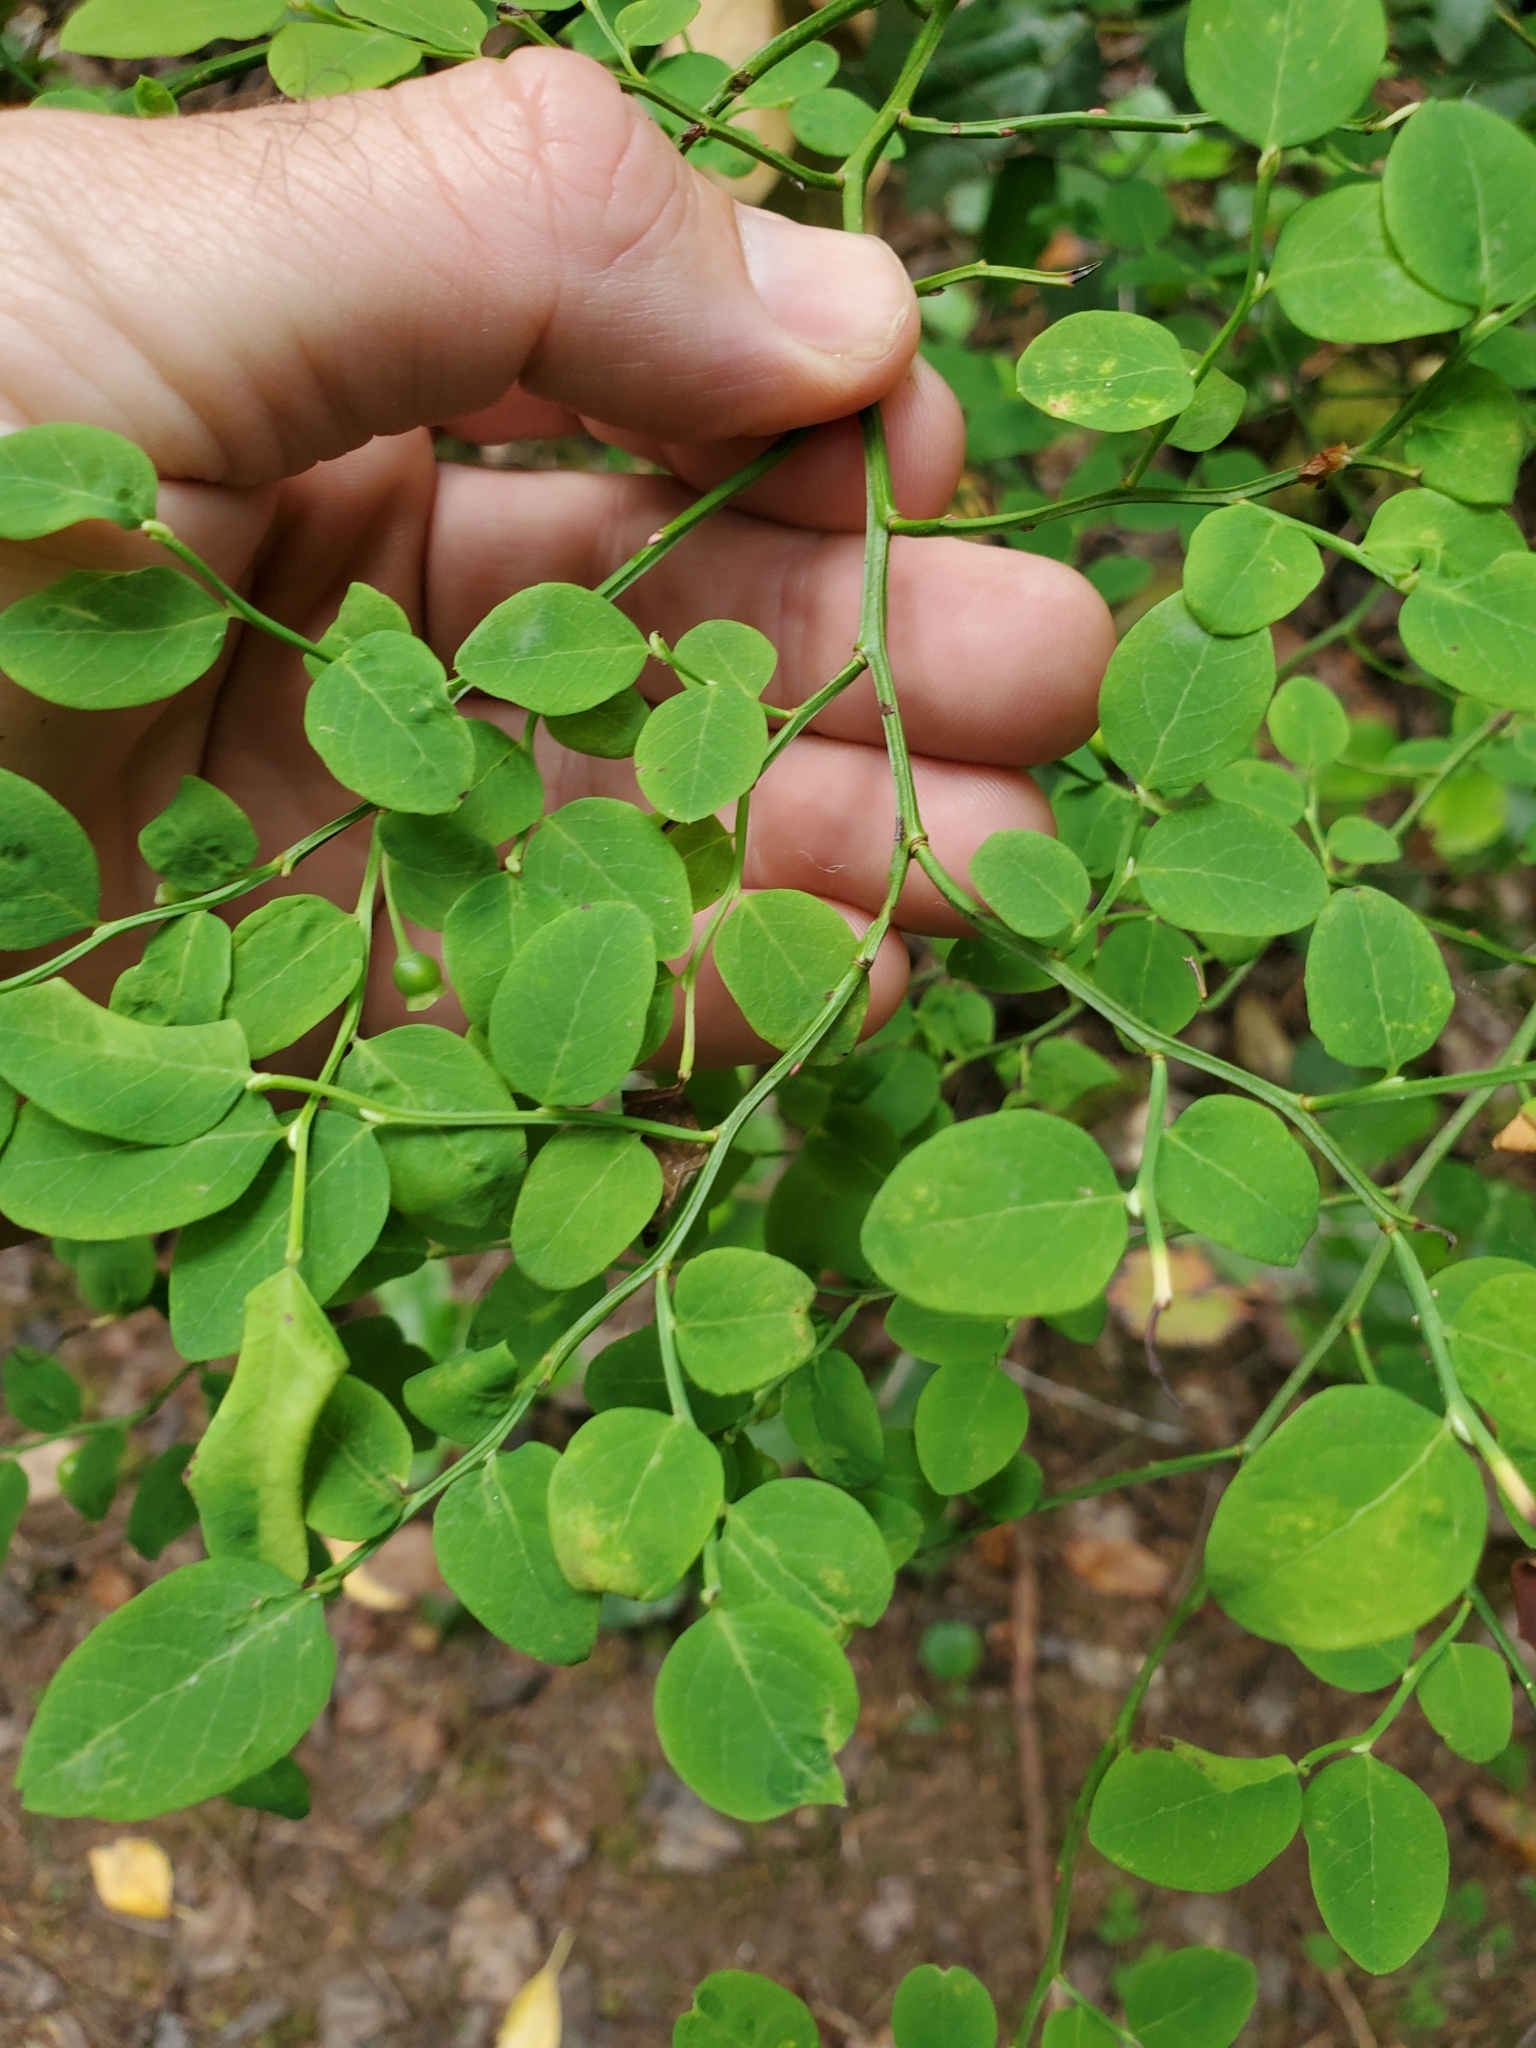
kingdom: Plantae
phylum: Tracheophyta
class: Magnoliopsida
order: Ericales
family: Ericaceae
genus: Vaccinium
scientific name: Vaccinium parvifolium
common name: Red-huckleberry
